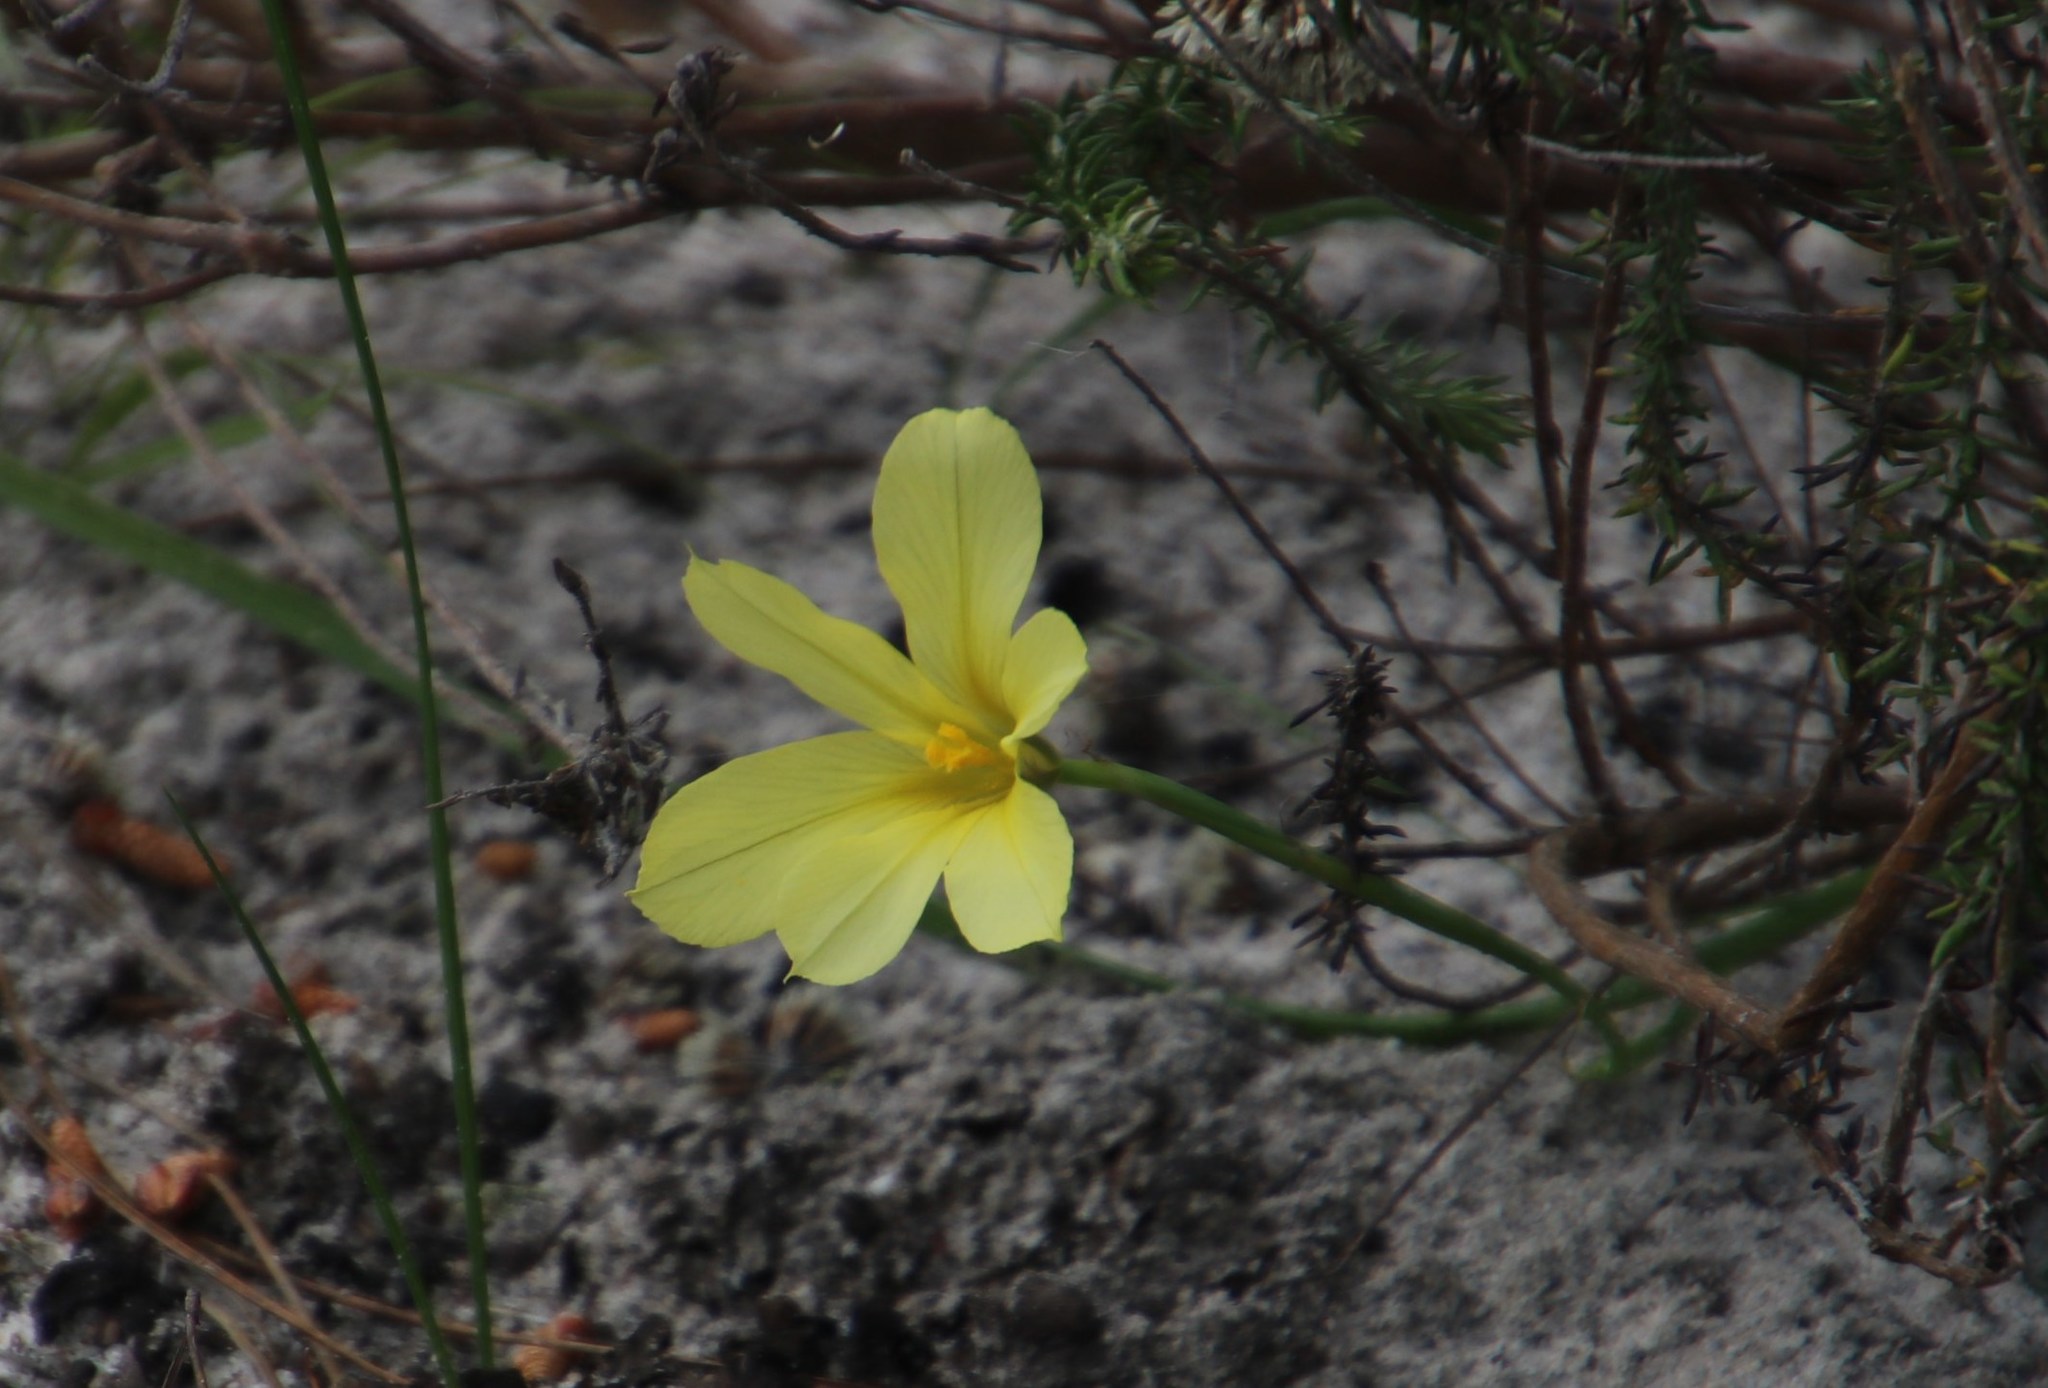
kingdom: Plantae
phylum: Tracheophyta
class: Liliopsida
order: Asparagales
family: Iridaceae
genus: Moraea
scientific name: Moraea collina
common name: Cape-tulip
